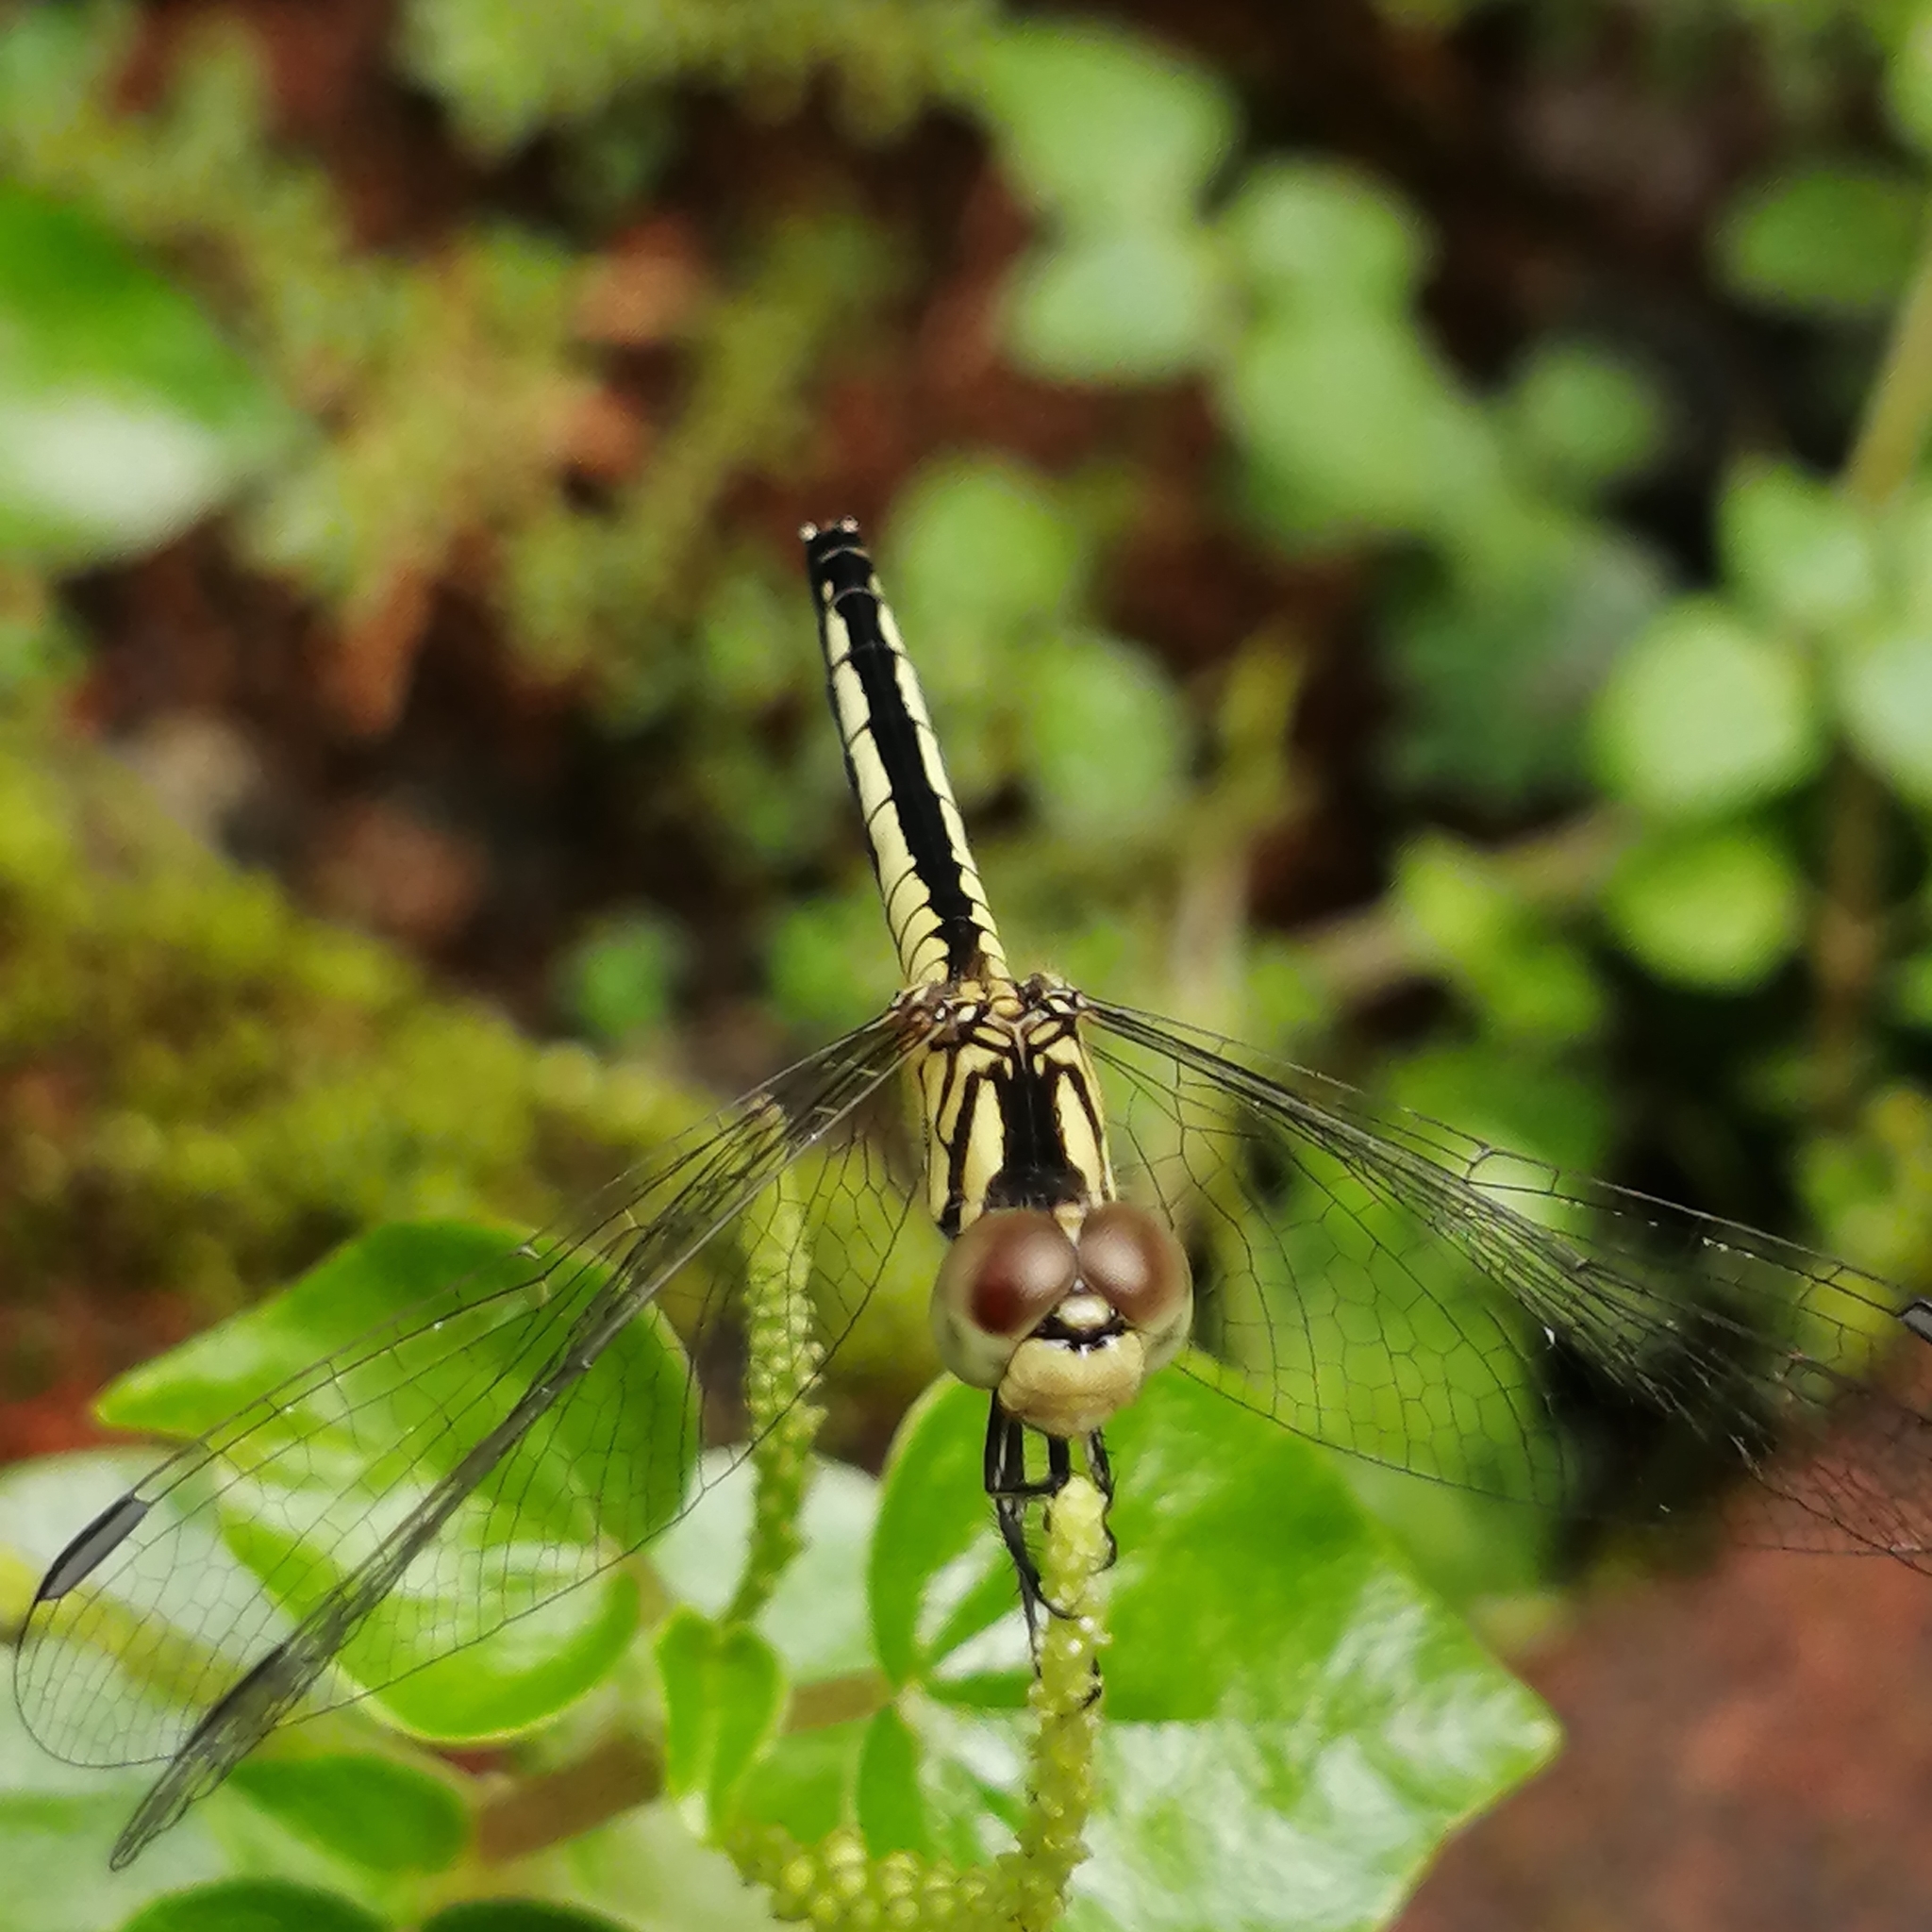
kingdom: Animalia
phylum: Arthropoda
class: Insecta
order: Odonata
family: Libellulidae
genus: Diplacodes
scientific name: Diplacodes nebulosa
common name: Black-tipped percher
